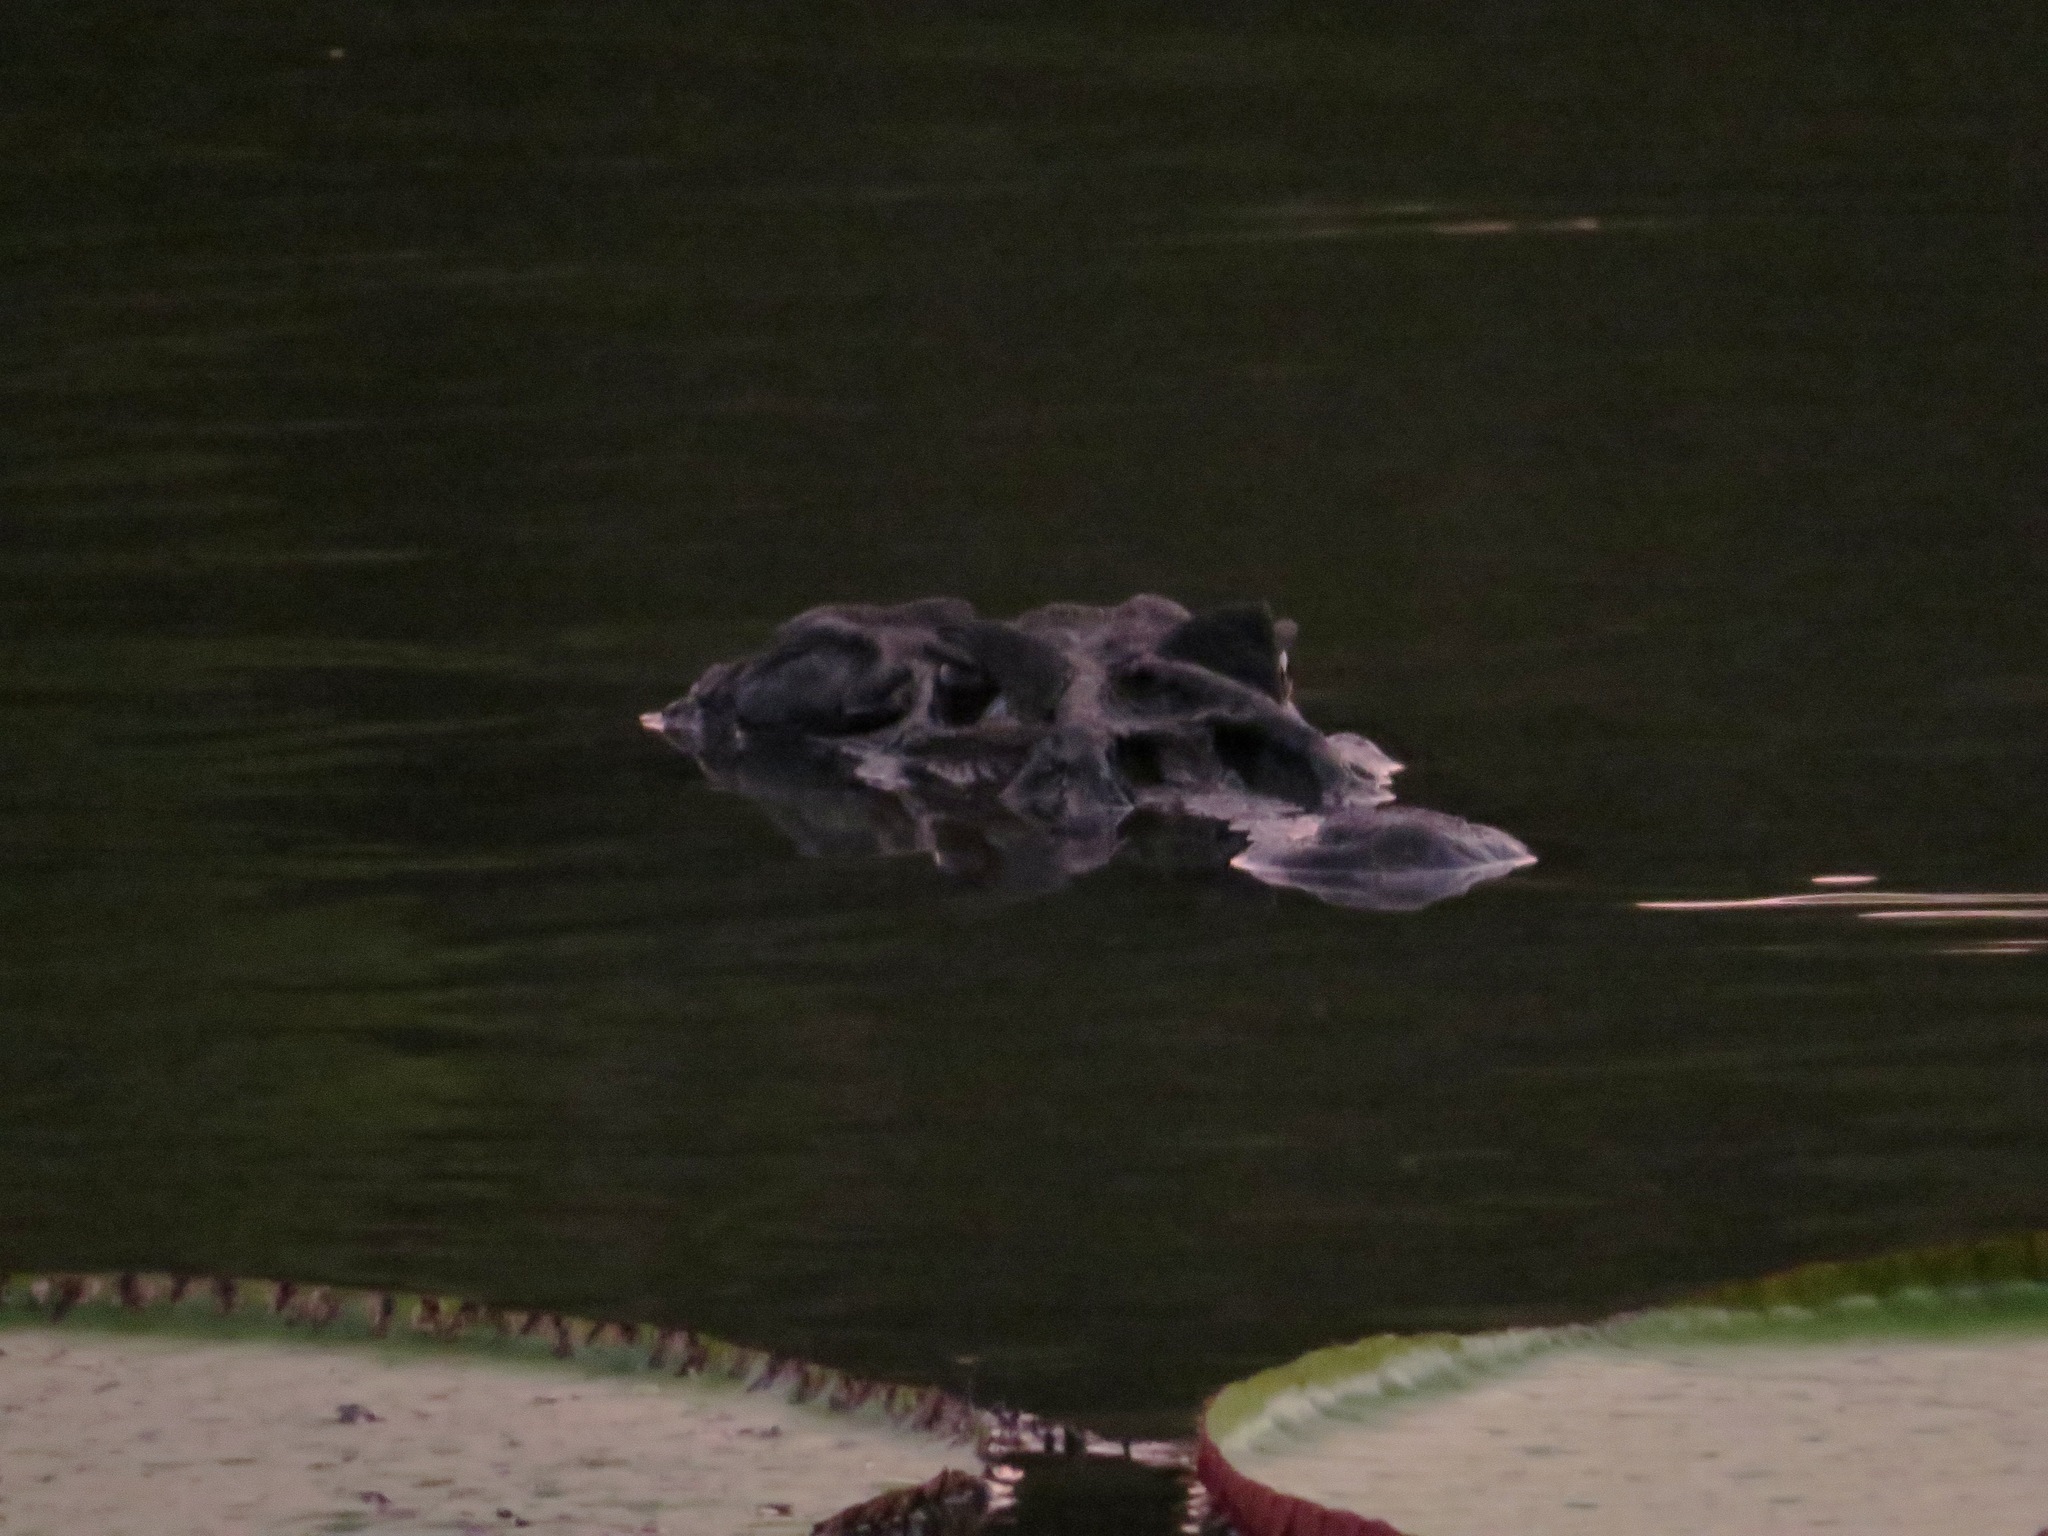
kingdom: Animalia
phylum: Chordata
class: Crocodylia
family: Alligatoridae
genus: Melanosuchus
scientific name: Melanosuchus niger
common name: Black caiman
